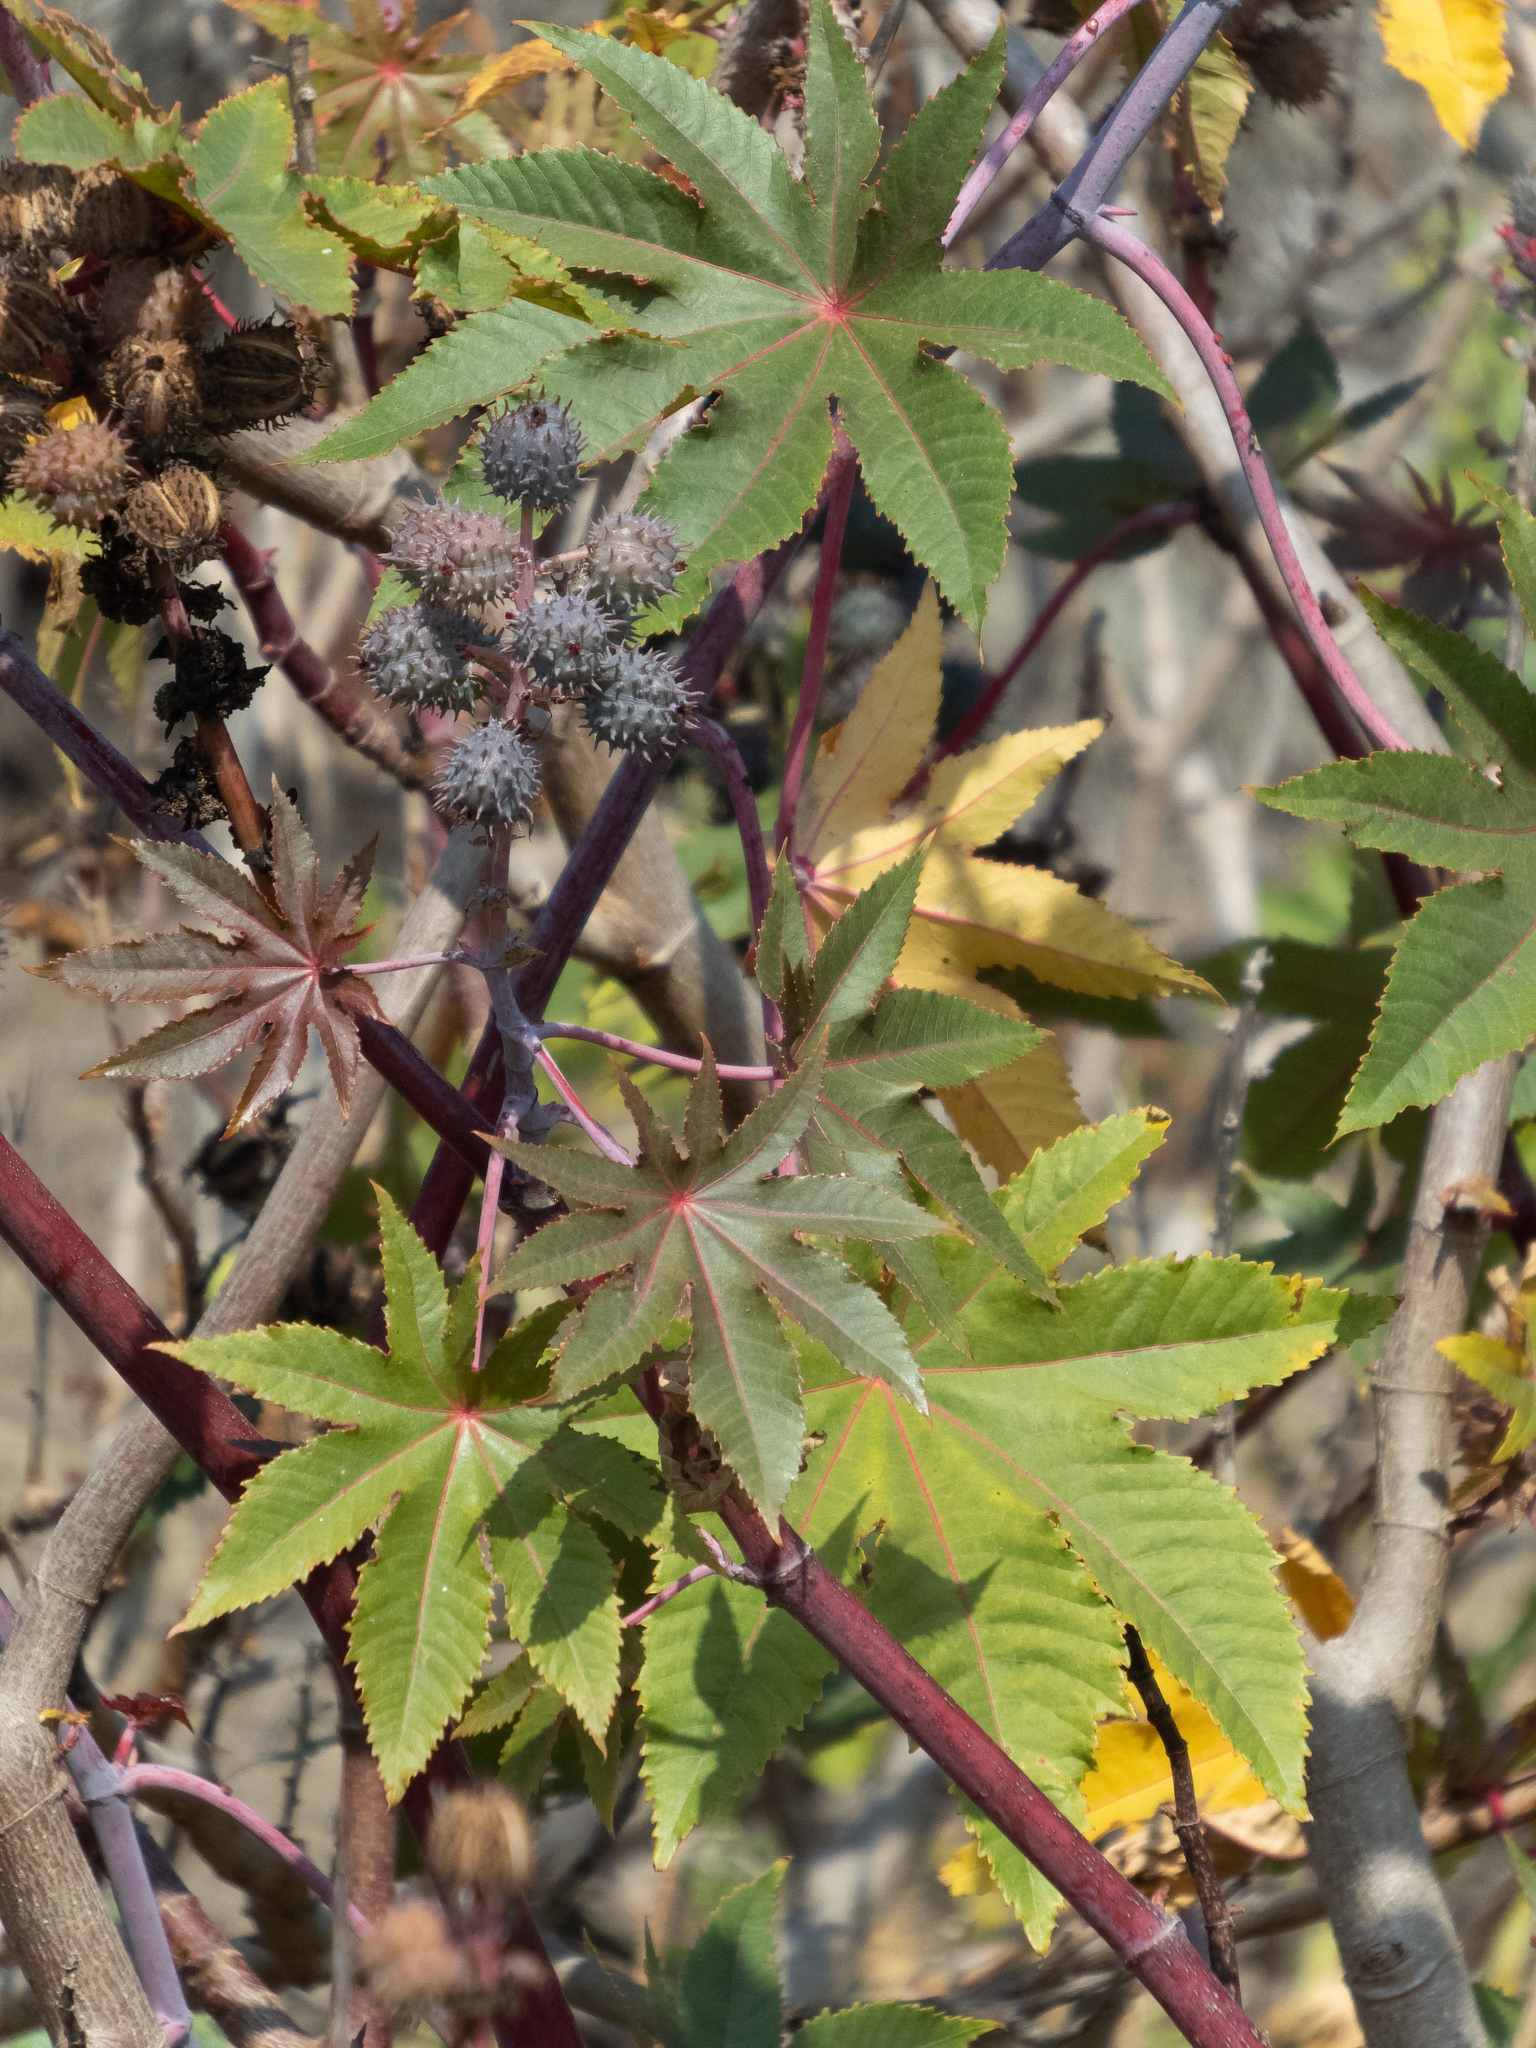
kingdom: Plantae
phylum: Tracheophyta
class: Magnoliopsida
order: Malpighiales
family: Euphorbiaceae
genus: Ricinus
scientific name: Ricinus communis
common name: Castor-oil-plant
